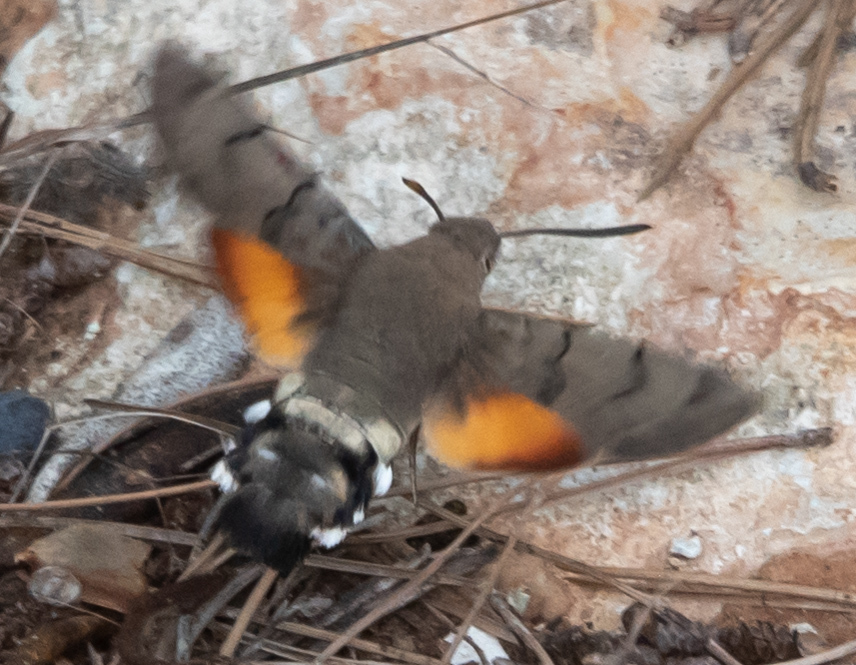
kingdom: Animalia
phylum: Arthropoda
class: Insecta
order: Lepidoptera
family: Sphingidae
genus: Macroglossum
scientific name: Macroglossum stellatarum
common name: Humming-bird hawk-moth
